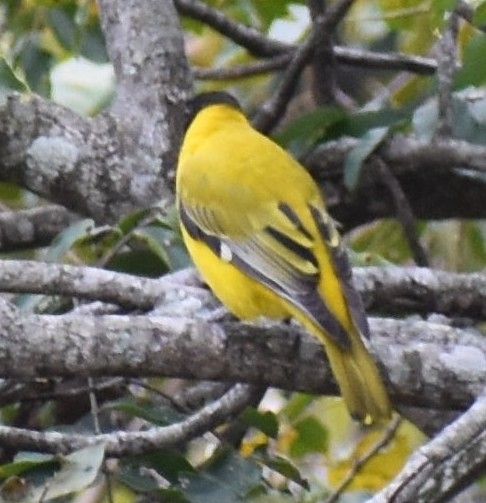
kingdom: Animalia
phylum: Chordata
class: Aves
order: Passeriformes
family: Oriolidae
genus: Oriolus
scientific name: Oriolus larvatus
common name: Black-headed oriole
